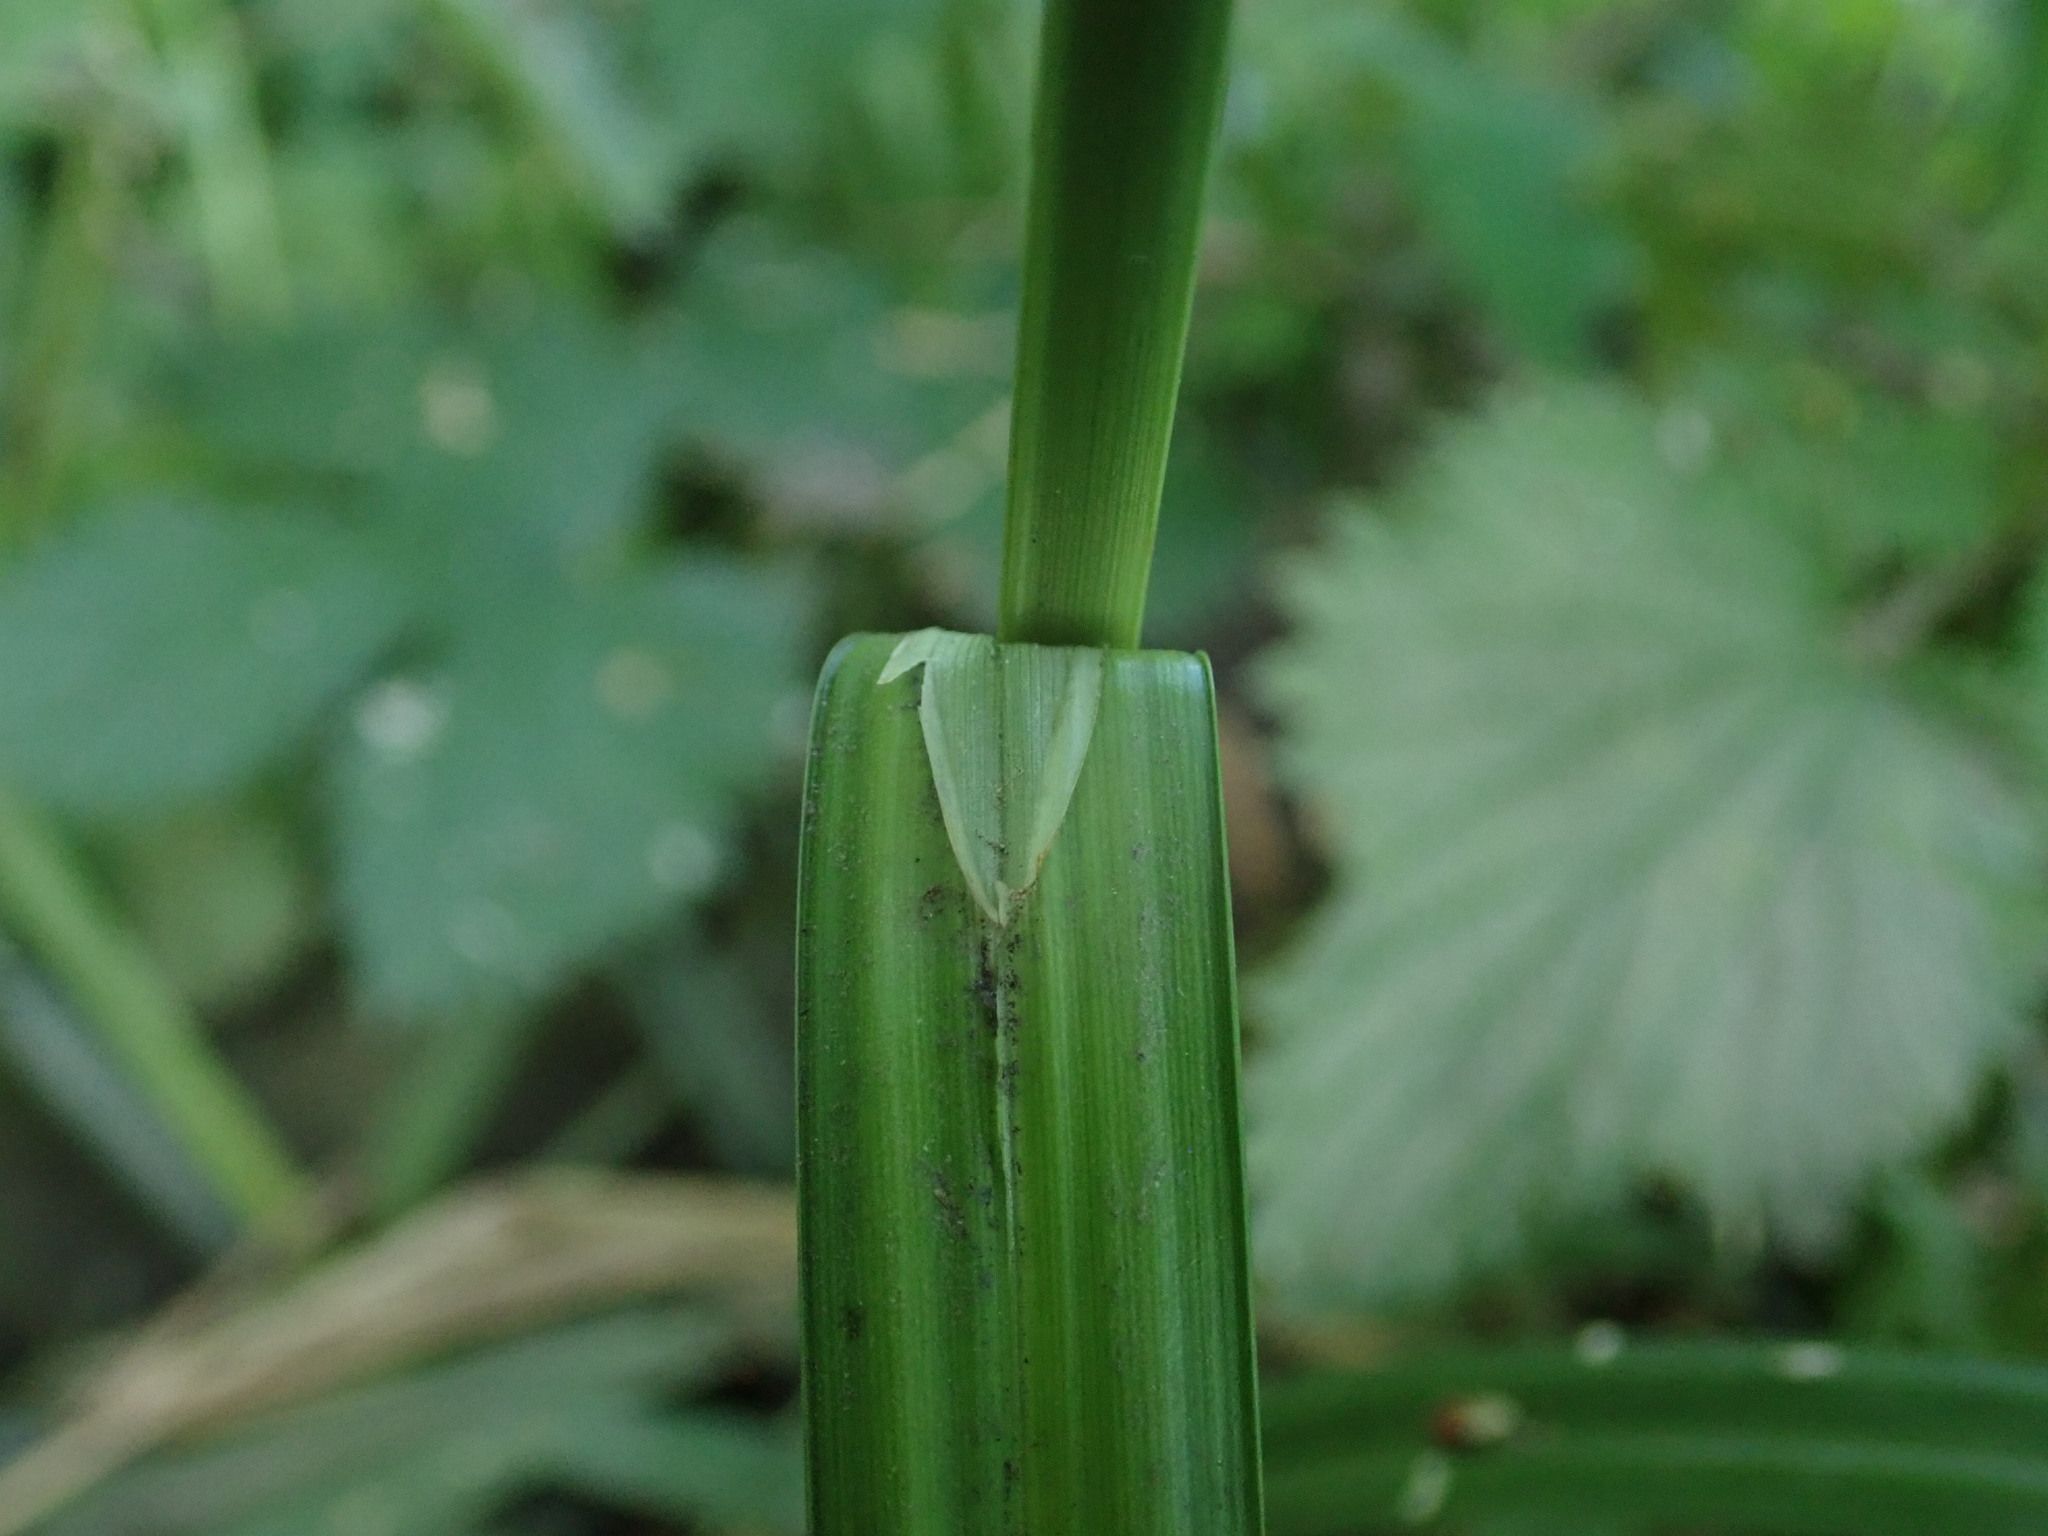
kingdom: Plantae
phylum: Tracheophyta
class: Liliopsida
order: Poales
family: Cyperaceae
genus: Carex
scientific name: Carex pendula
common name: Pendulous sedge
